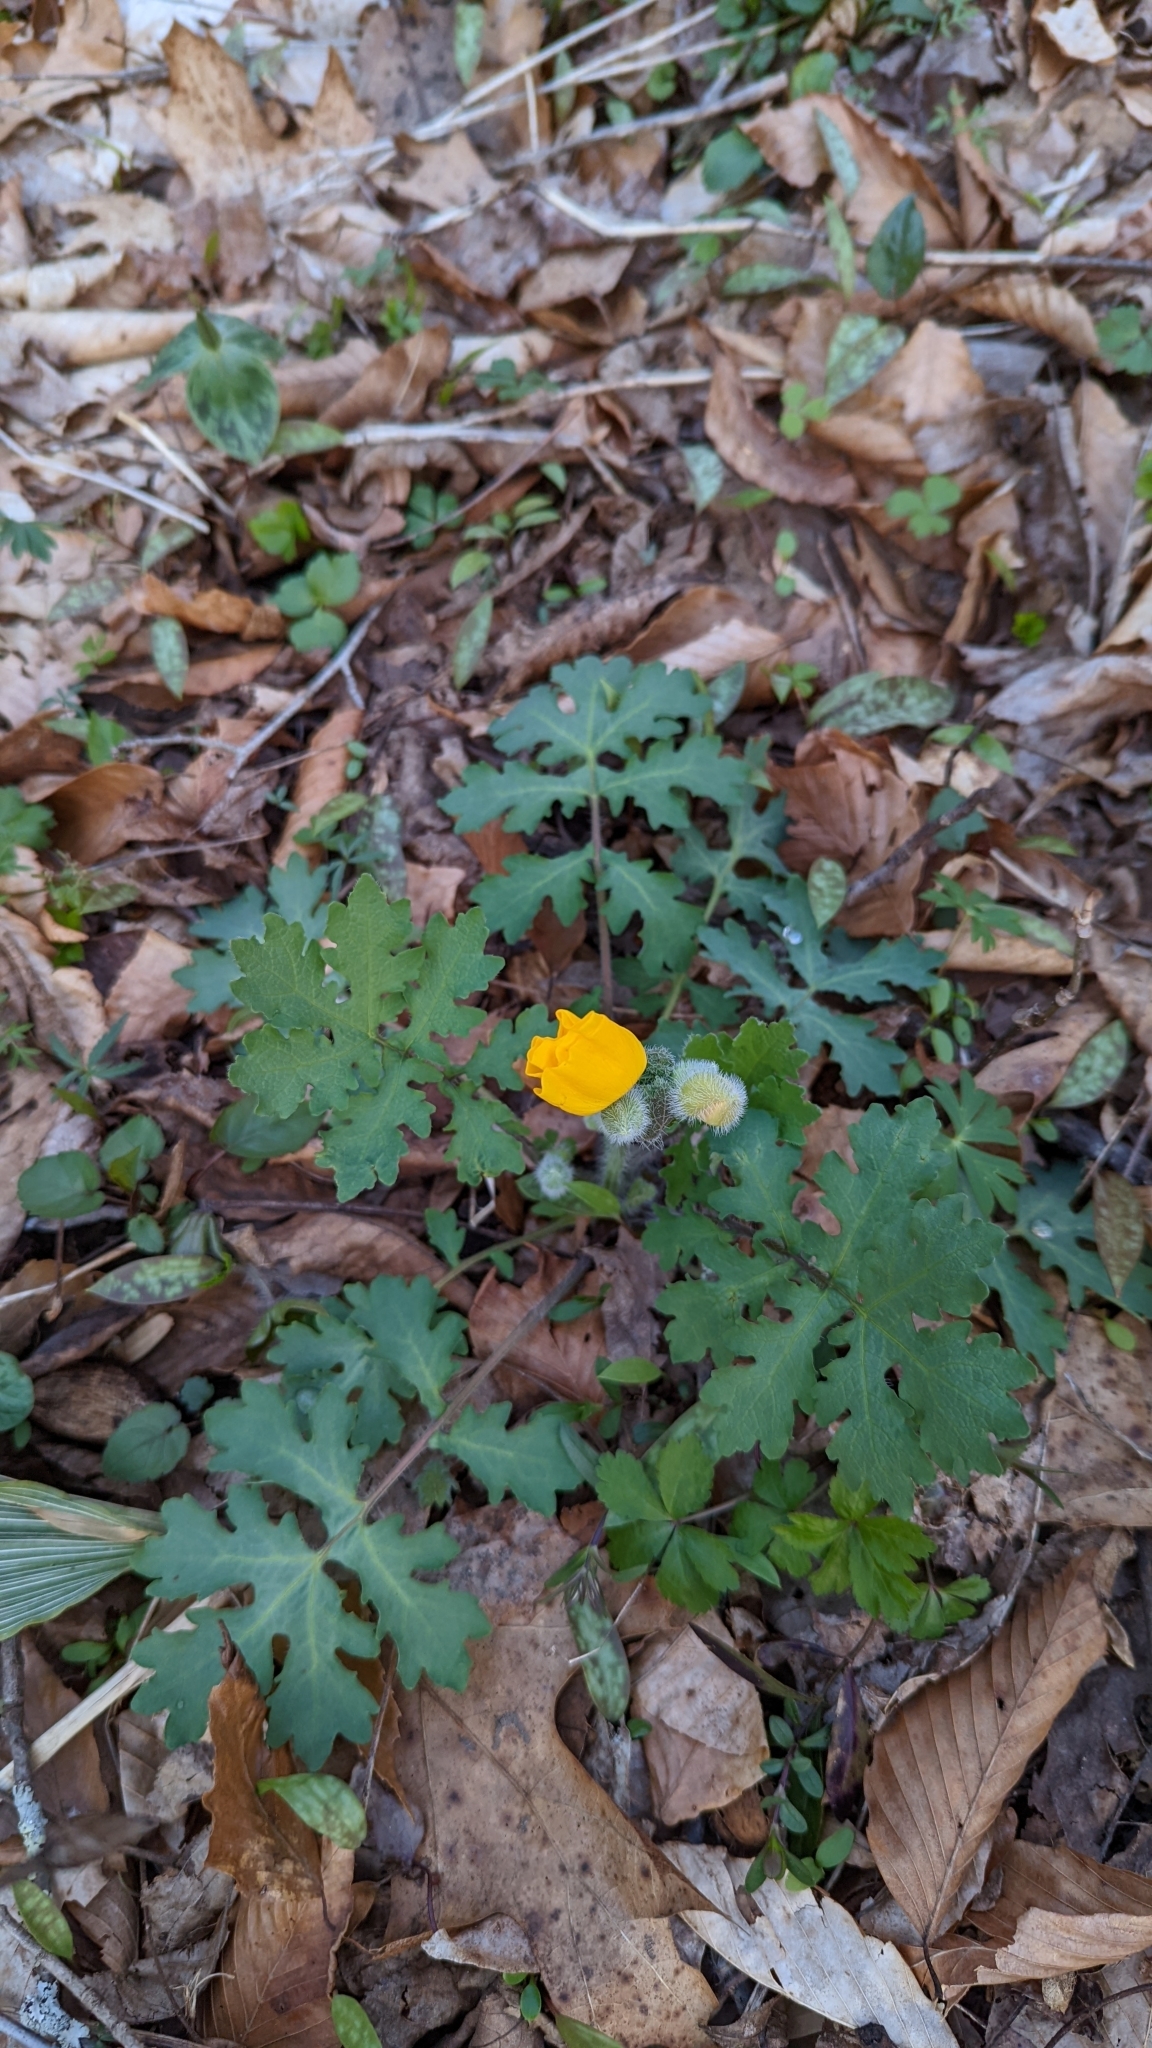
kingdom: Plantae
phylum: Tracheophyta
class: Magnoliopsida
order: Ranunculales
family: Papaveraceae
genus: Stylophorum
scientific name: Stylophorum diphyllum
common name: Celandine poppy
